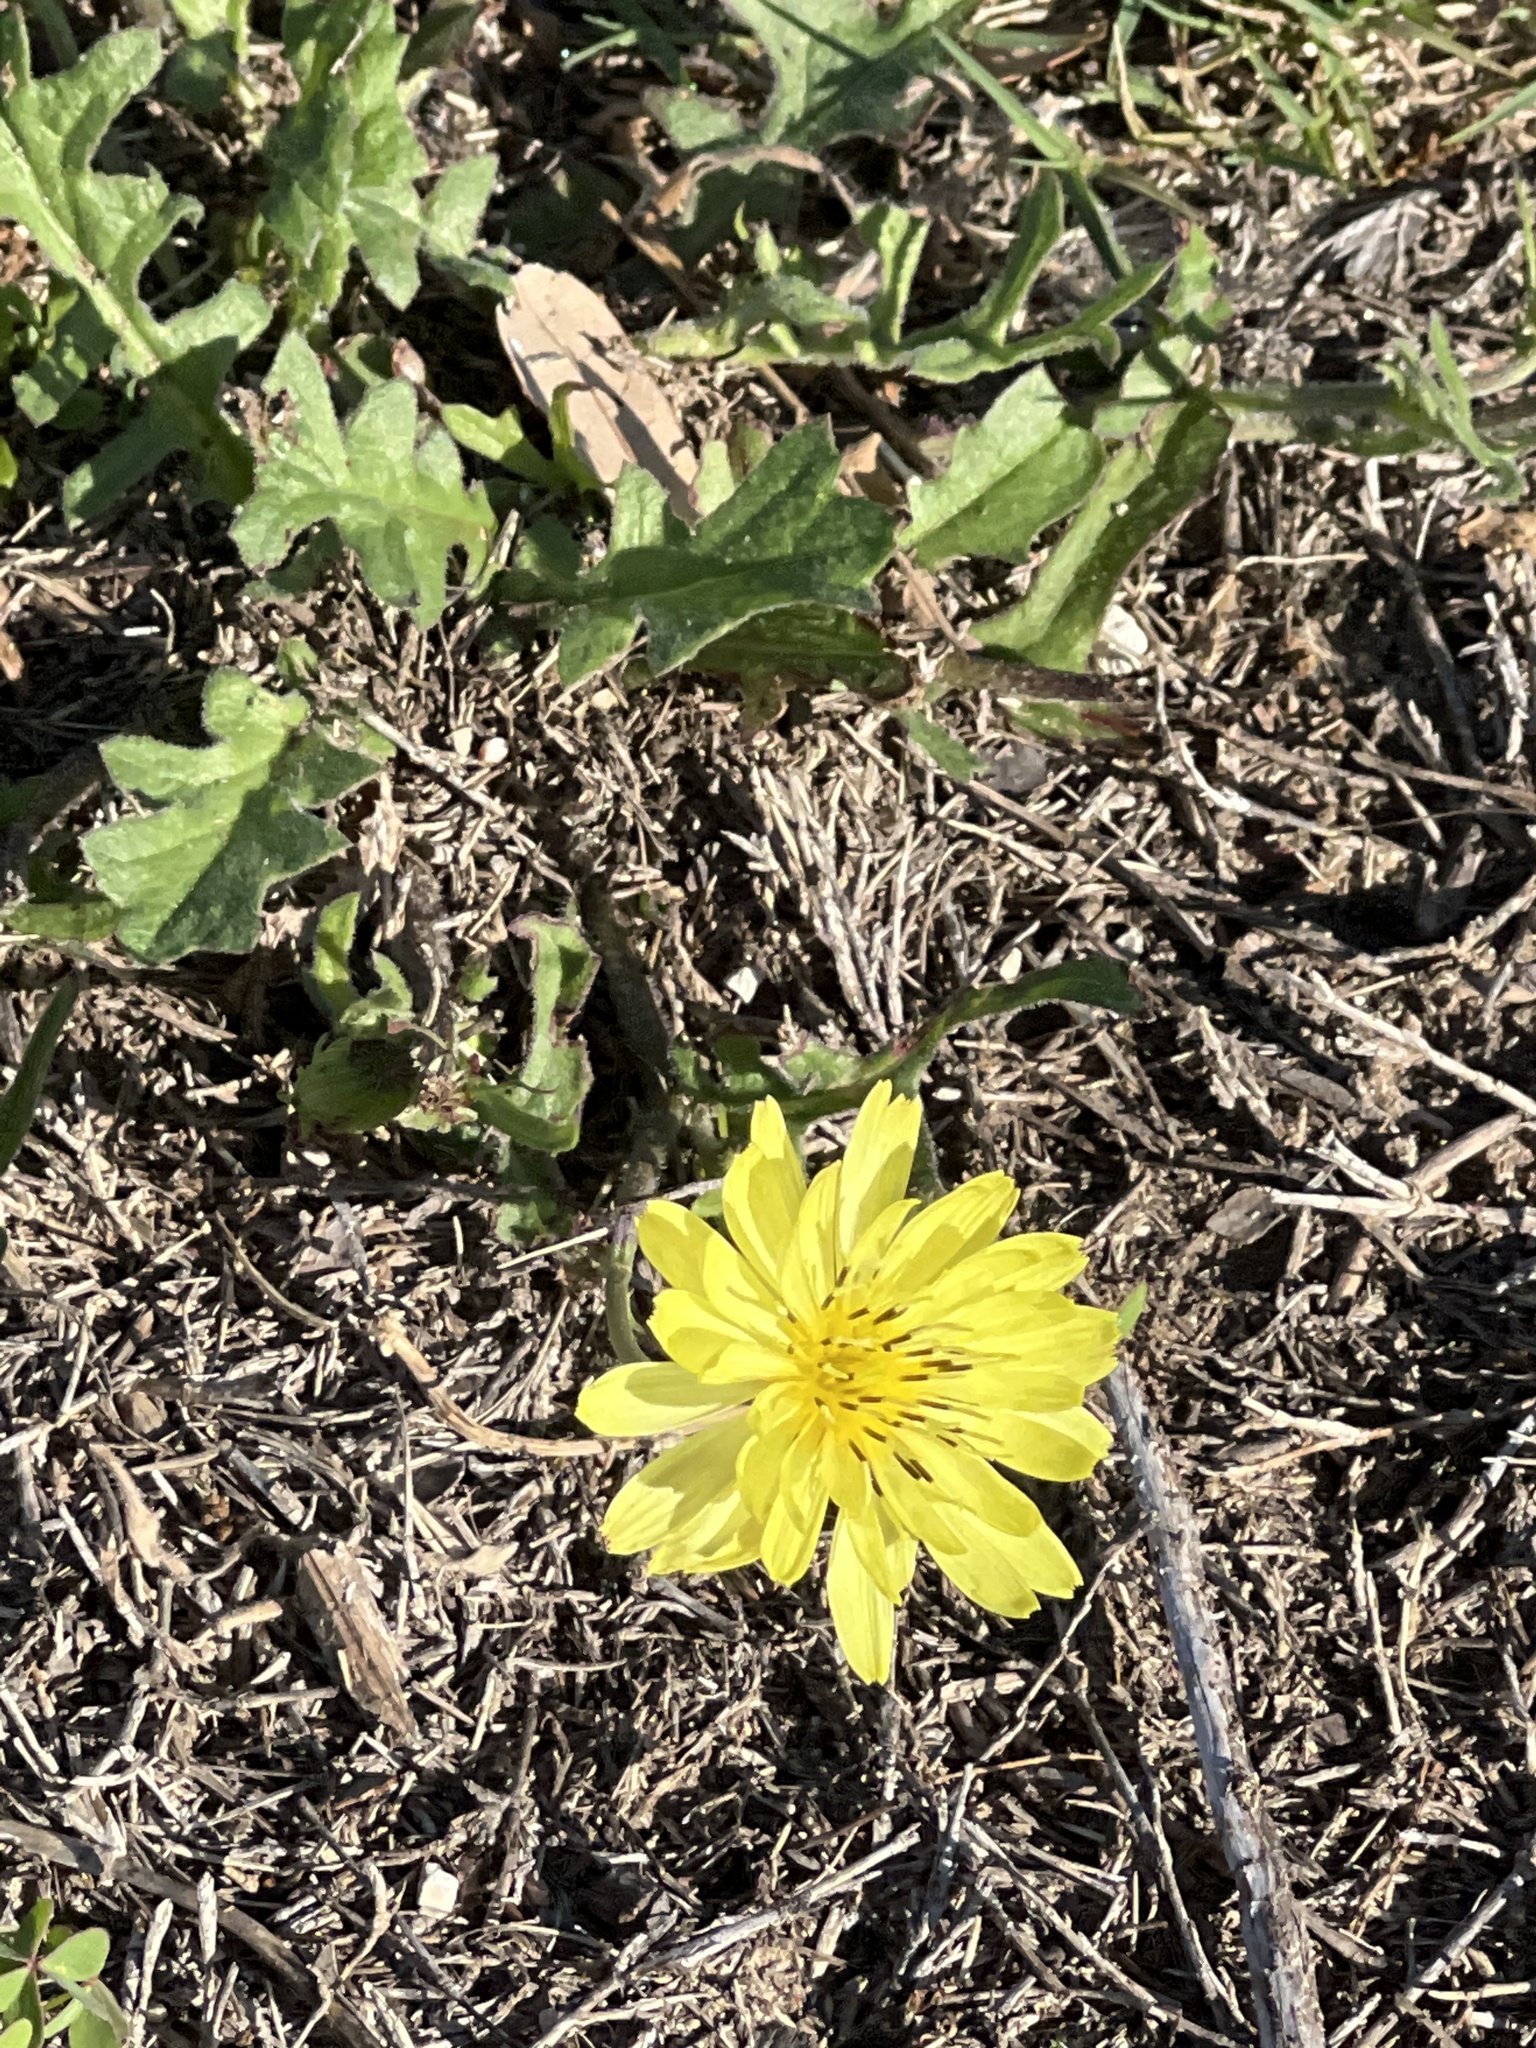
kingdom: Plantae
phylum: Tracheophyta
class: Magnoliopsida
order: Asterales
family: Asteraceae
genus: Pyrrhopappus
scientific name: Pyrrhopappus pauciflorus
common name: Texas false dandelion
